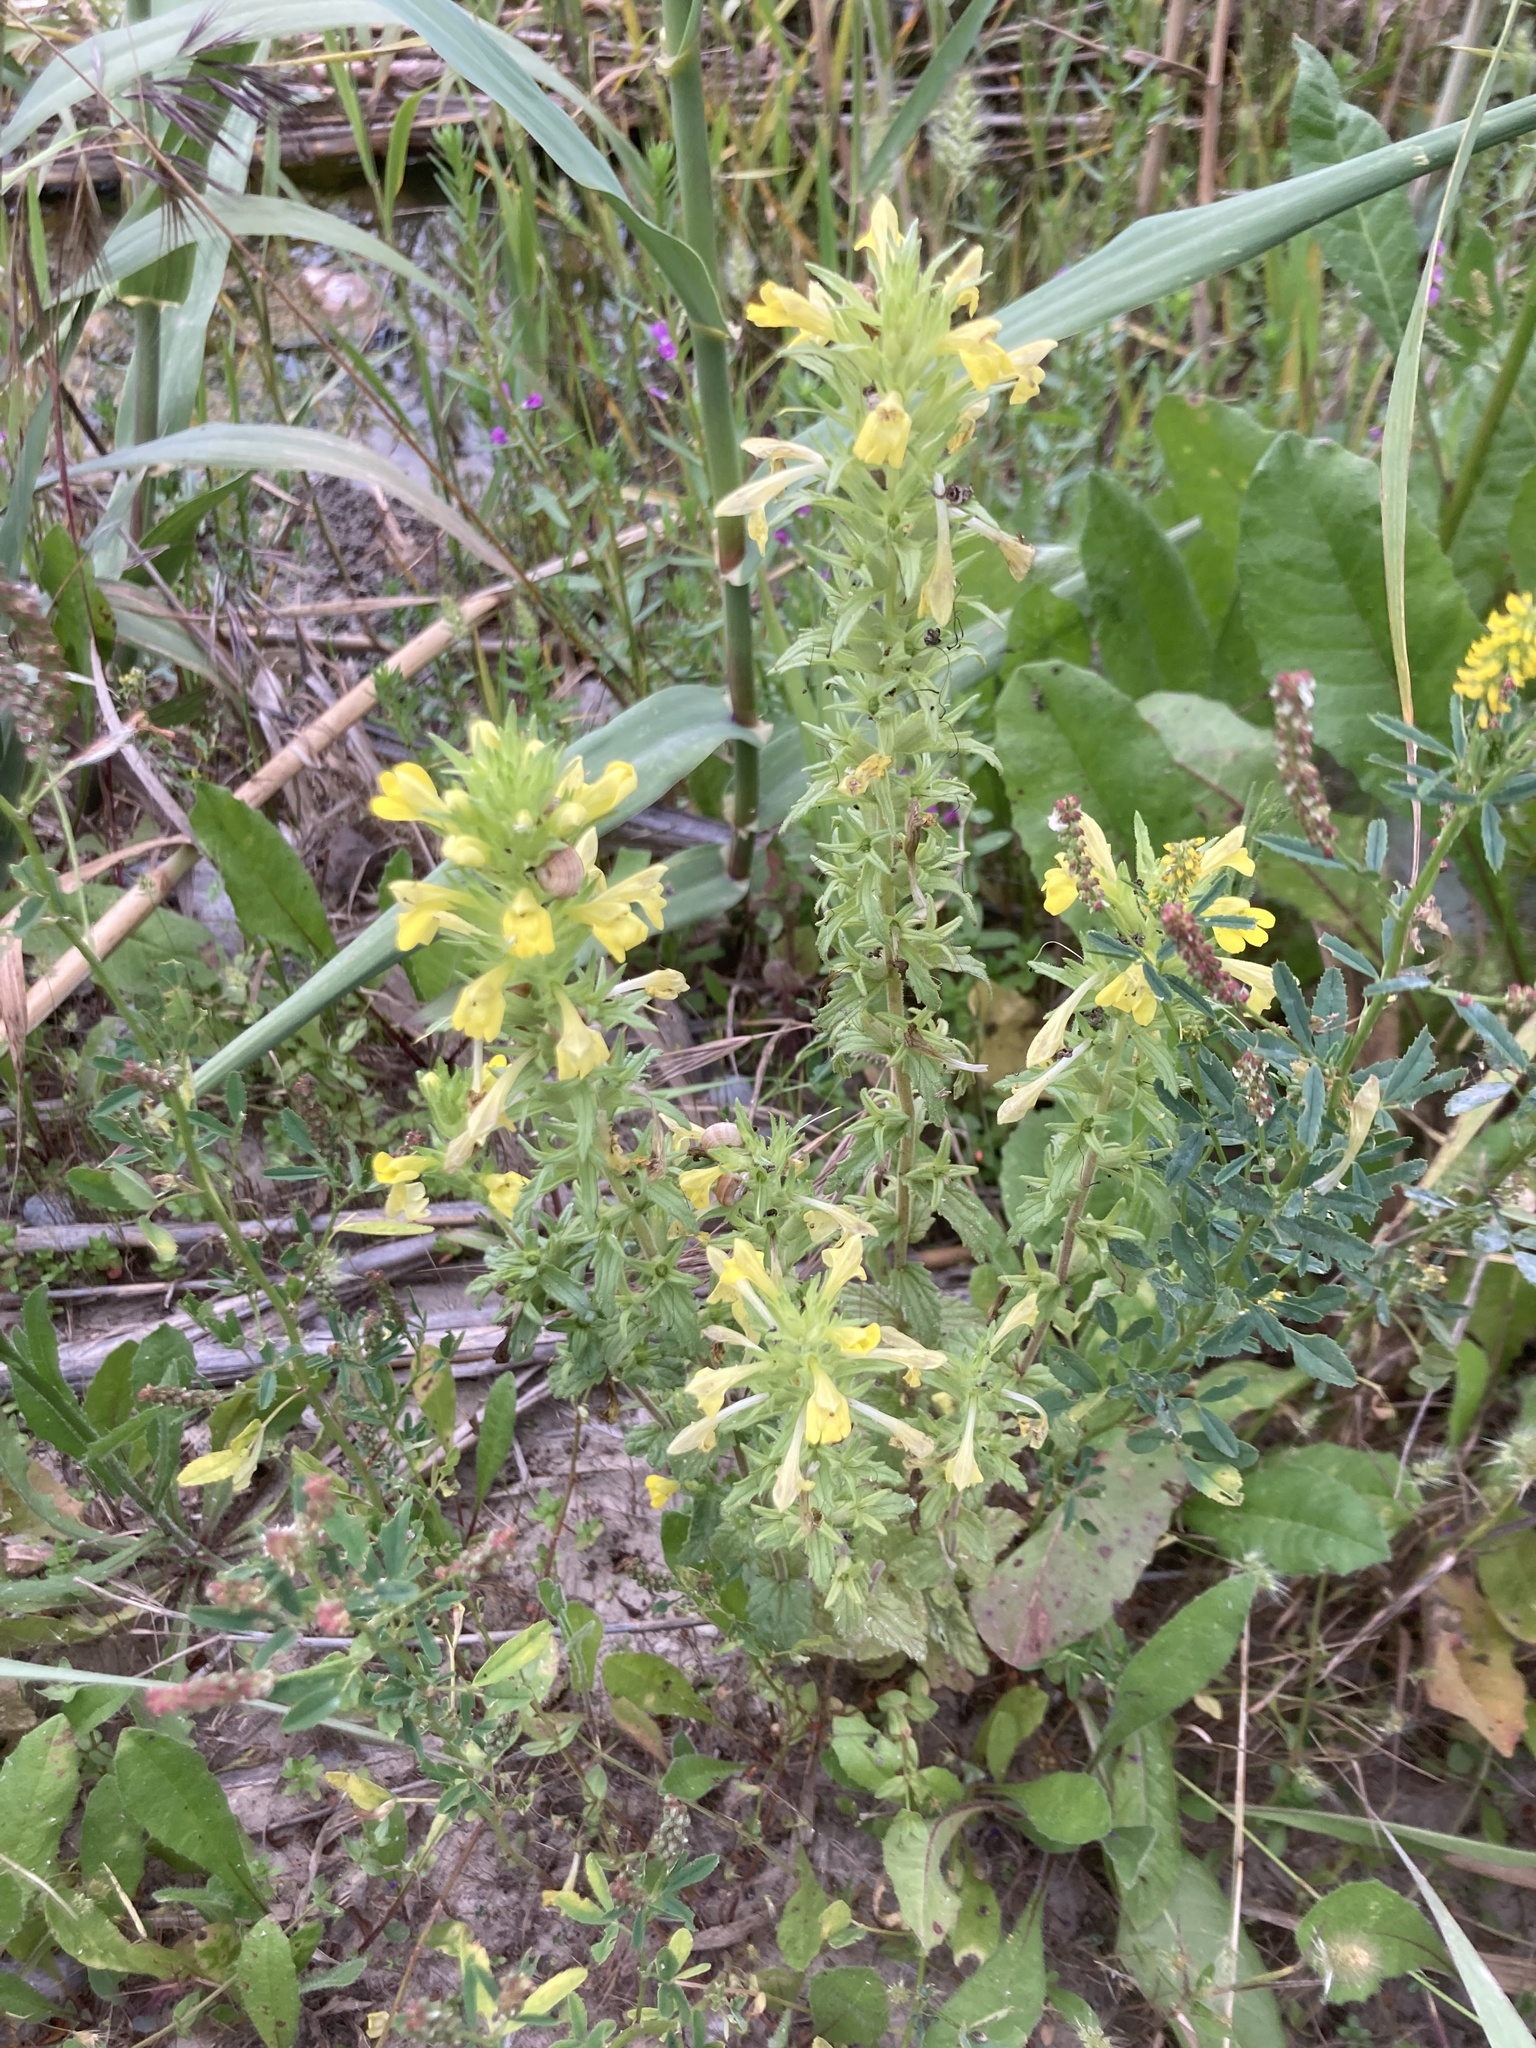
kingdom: Plantae
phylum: Tracheophyta
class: Magnoliopsida
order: Lamiales
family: Orobanchaceae
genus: Bellardia
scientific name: Bellardia viscosa
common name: Sticky parentucellia
